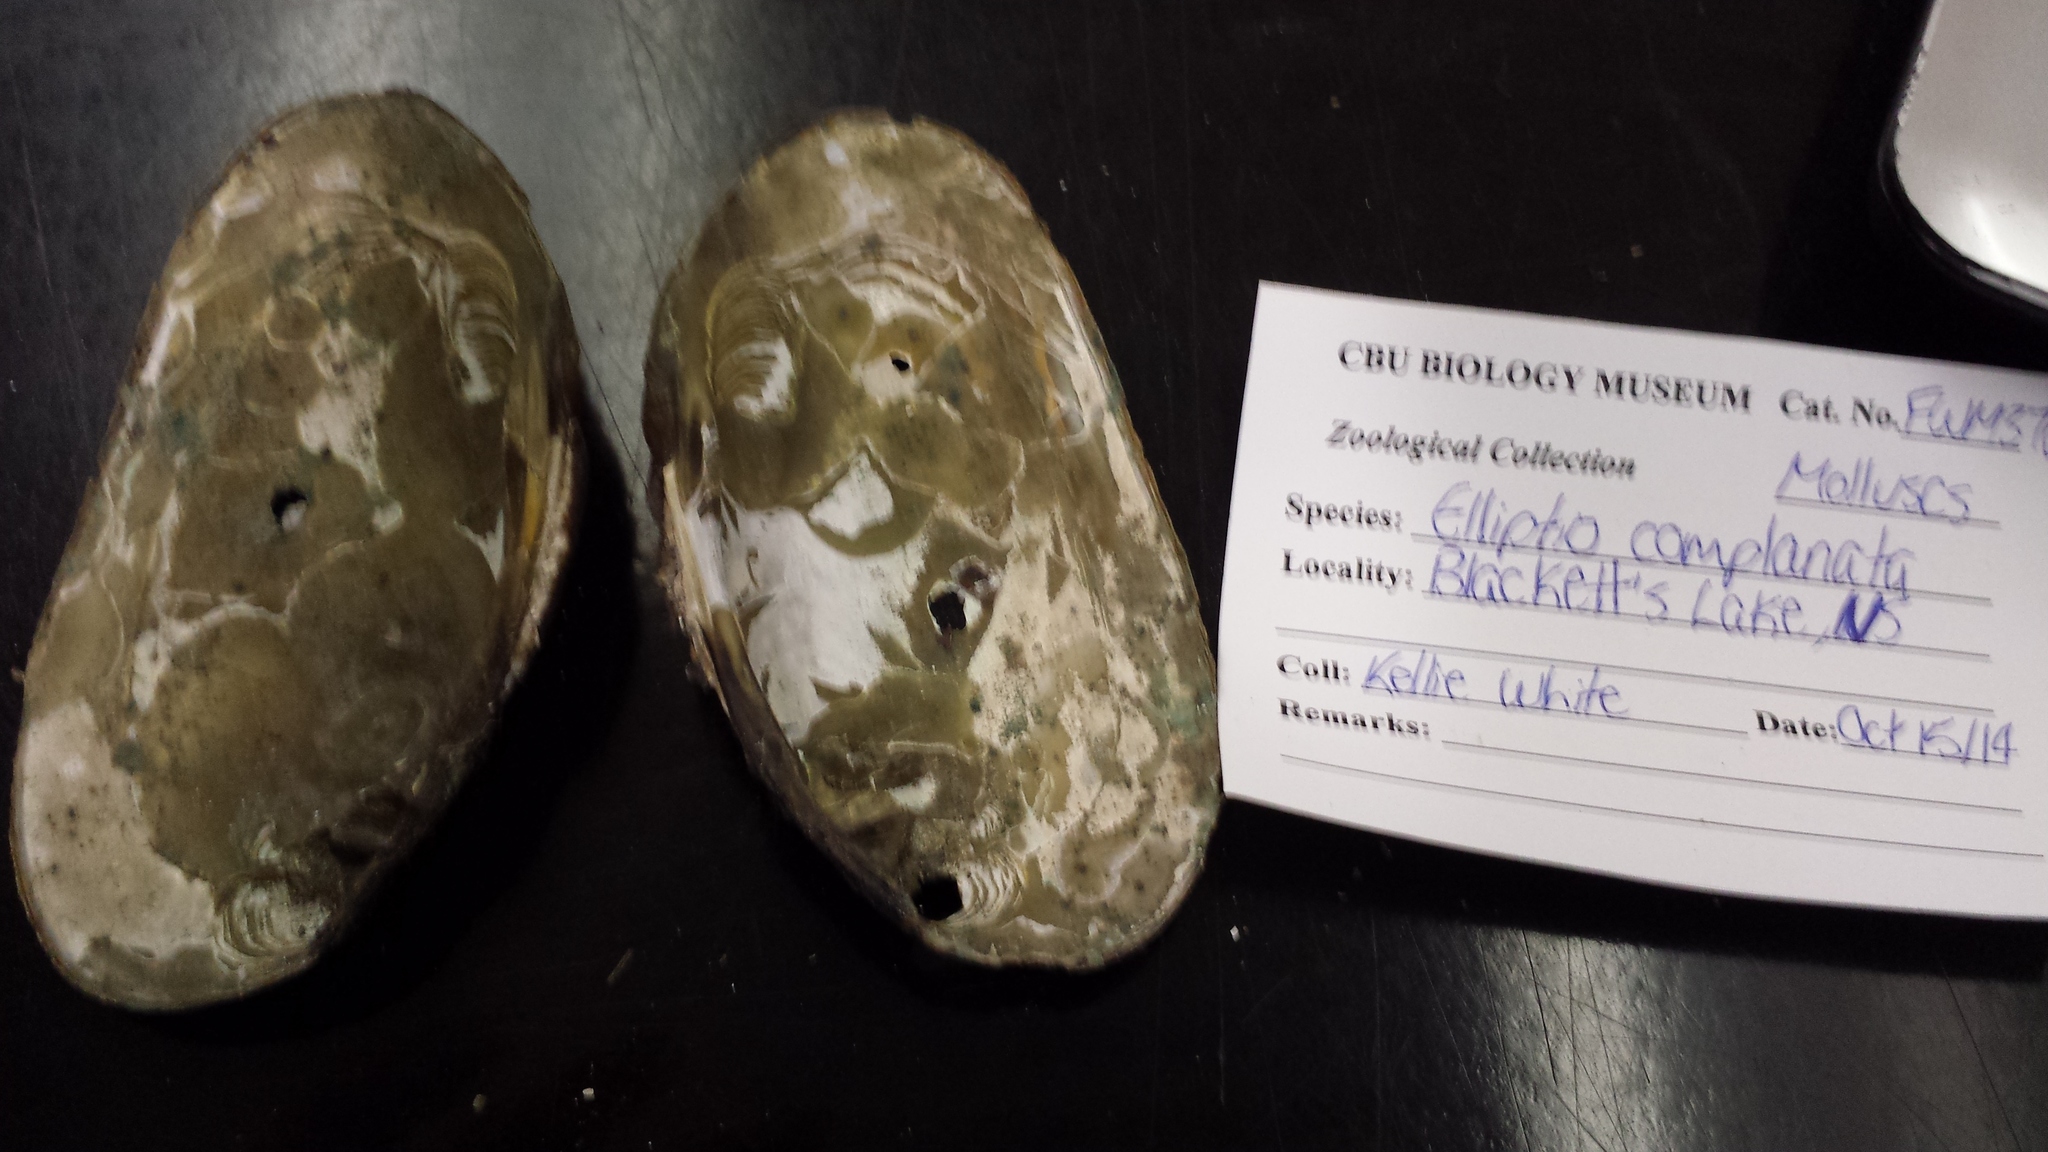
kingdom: Animalia
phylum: Mollusca
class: Bivalvia
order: Unionida
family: Unionidae
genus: Elliptio
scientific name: Elliptio complanata
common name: Eastern elliptio
